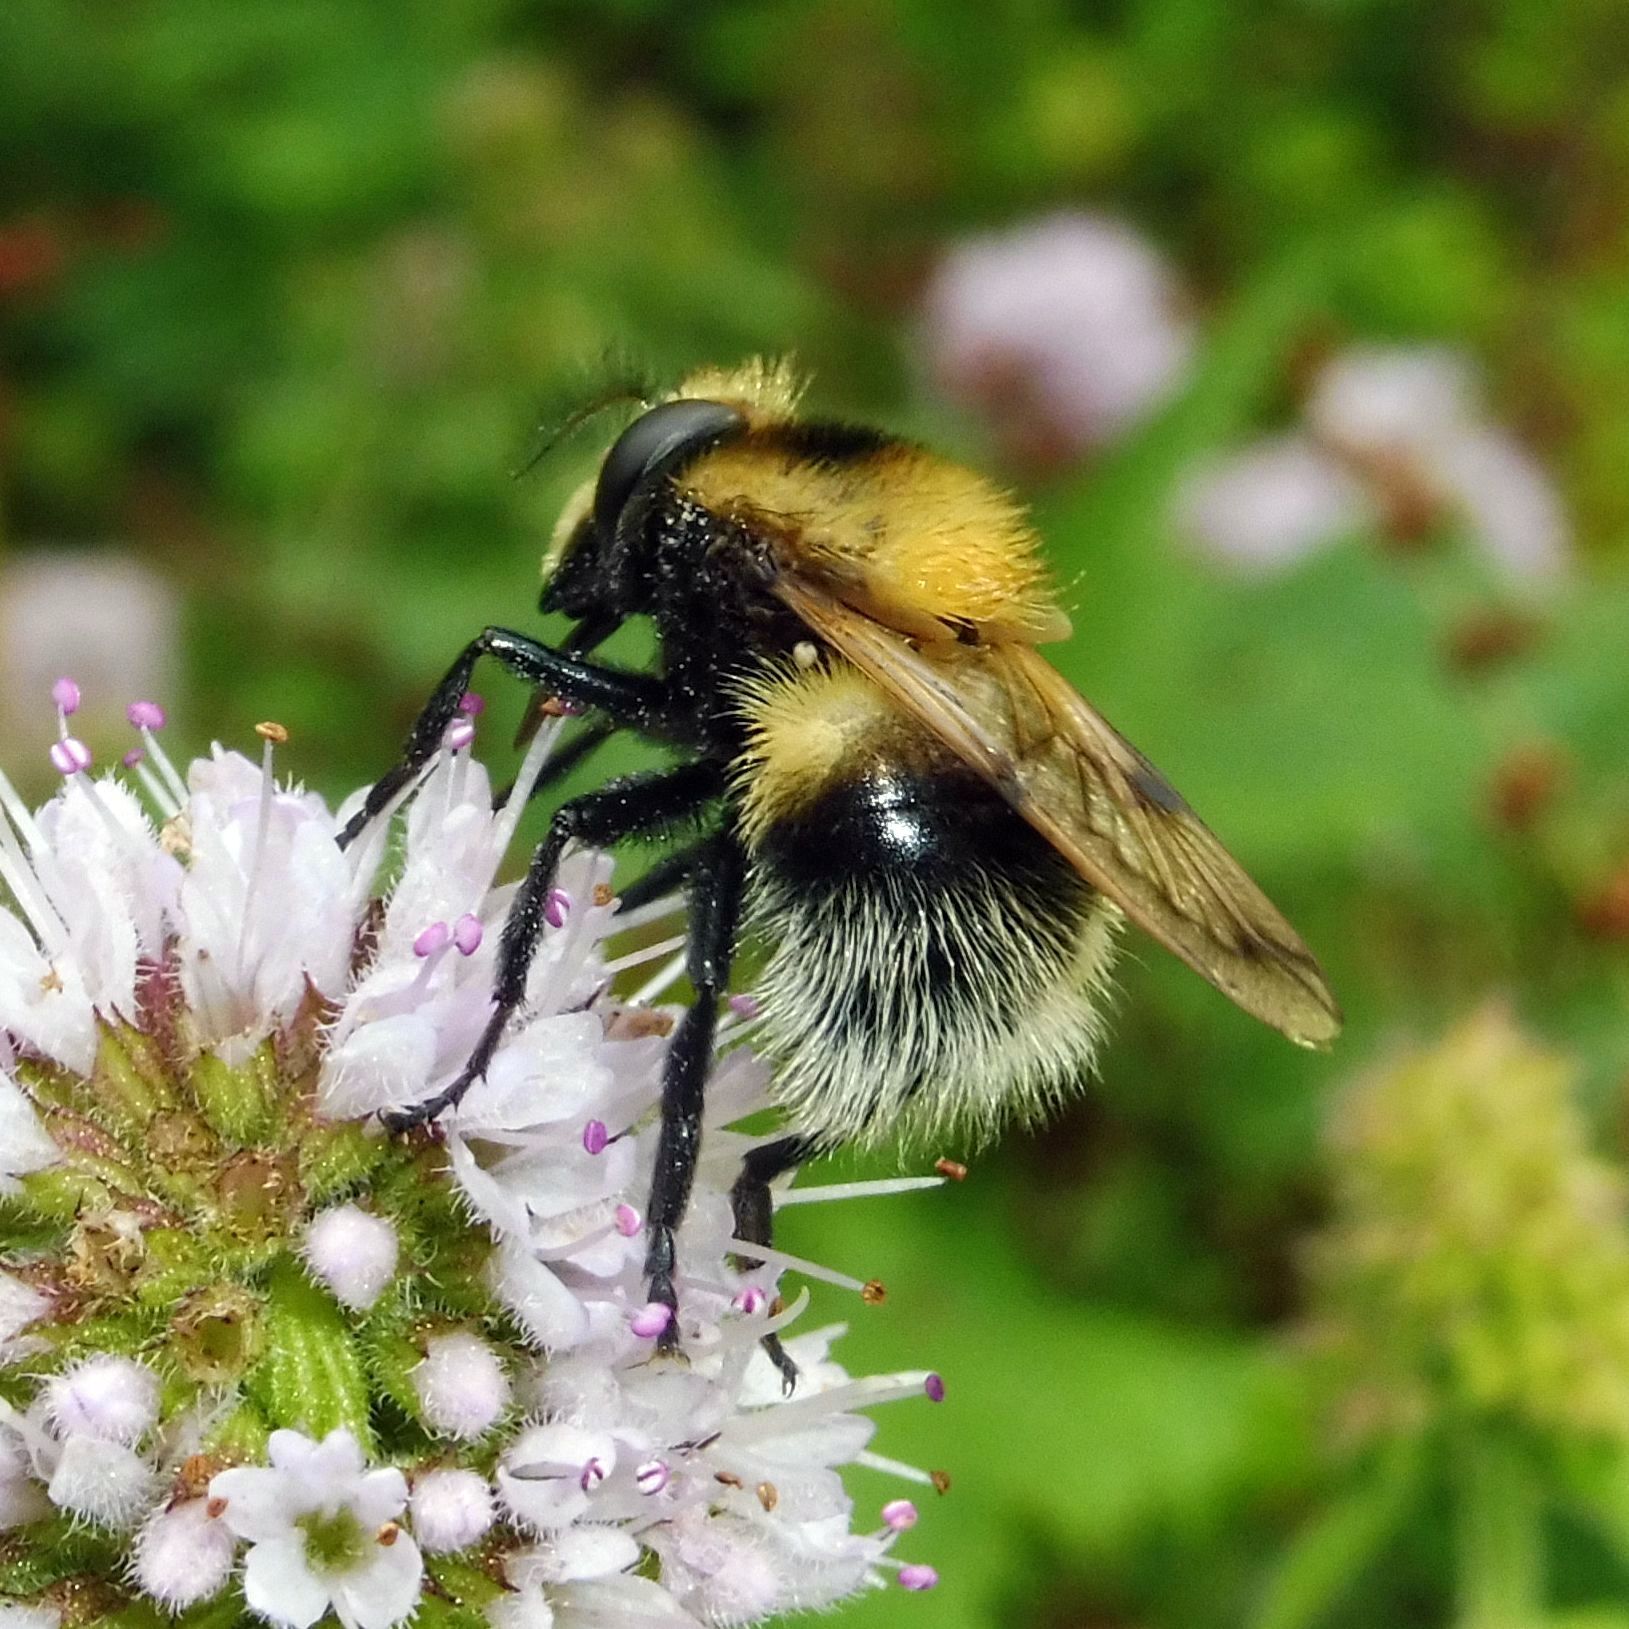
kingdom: Animalia
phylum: Arthropoda
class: Insecta
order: Diptera
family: Syrphidae
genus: Volucella
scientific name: Volucella bombylans
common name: Bumble bee hover fly
